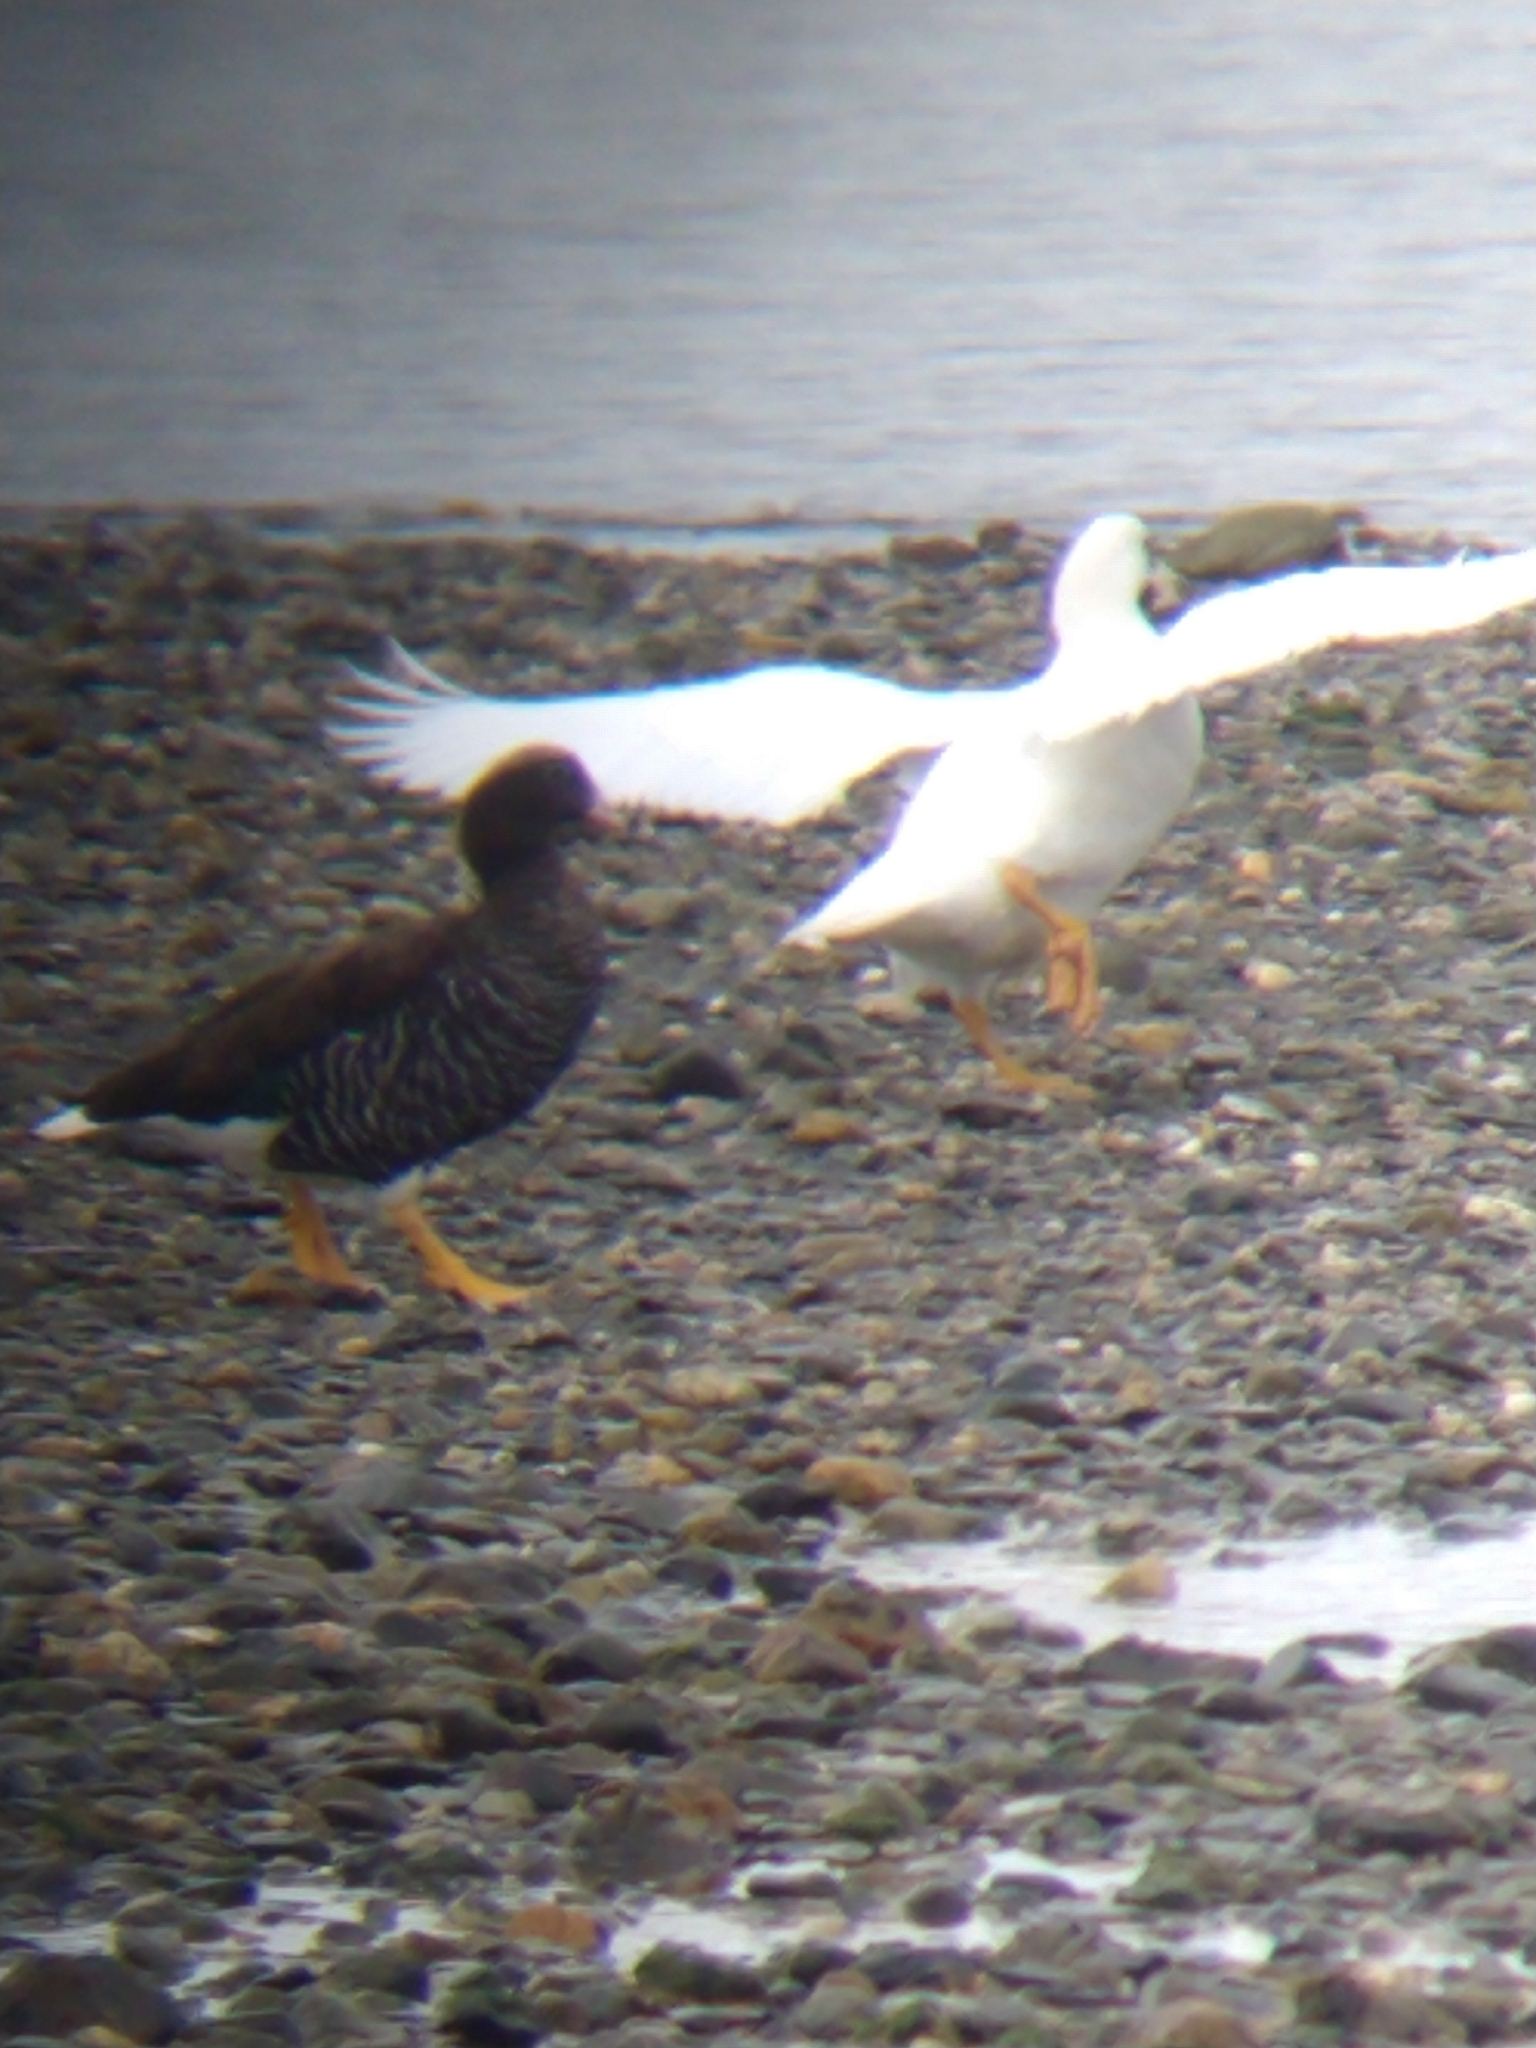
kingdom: Animalia
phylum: Chordata
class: Aves
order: Anseriformes
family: Anatidae
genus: Chloephaga
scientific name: Chloephaga hybrida
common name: Kelp goose
